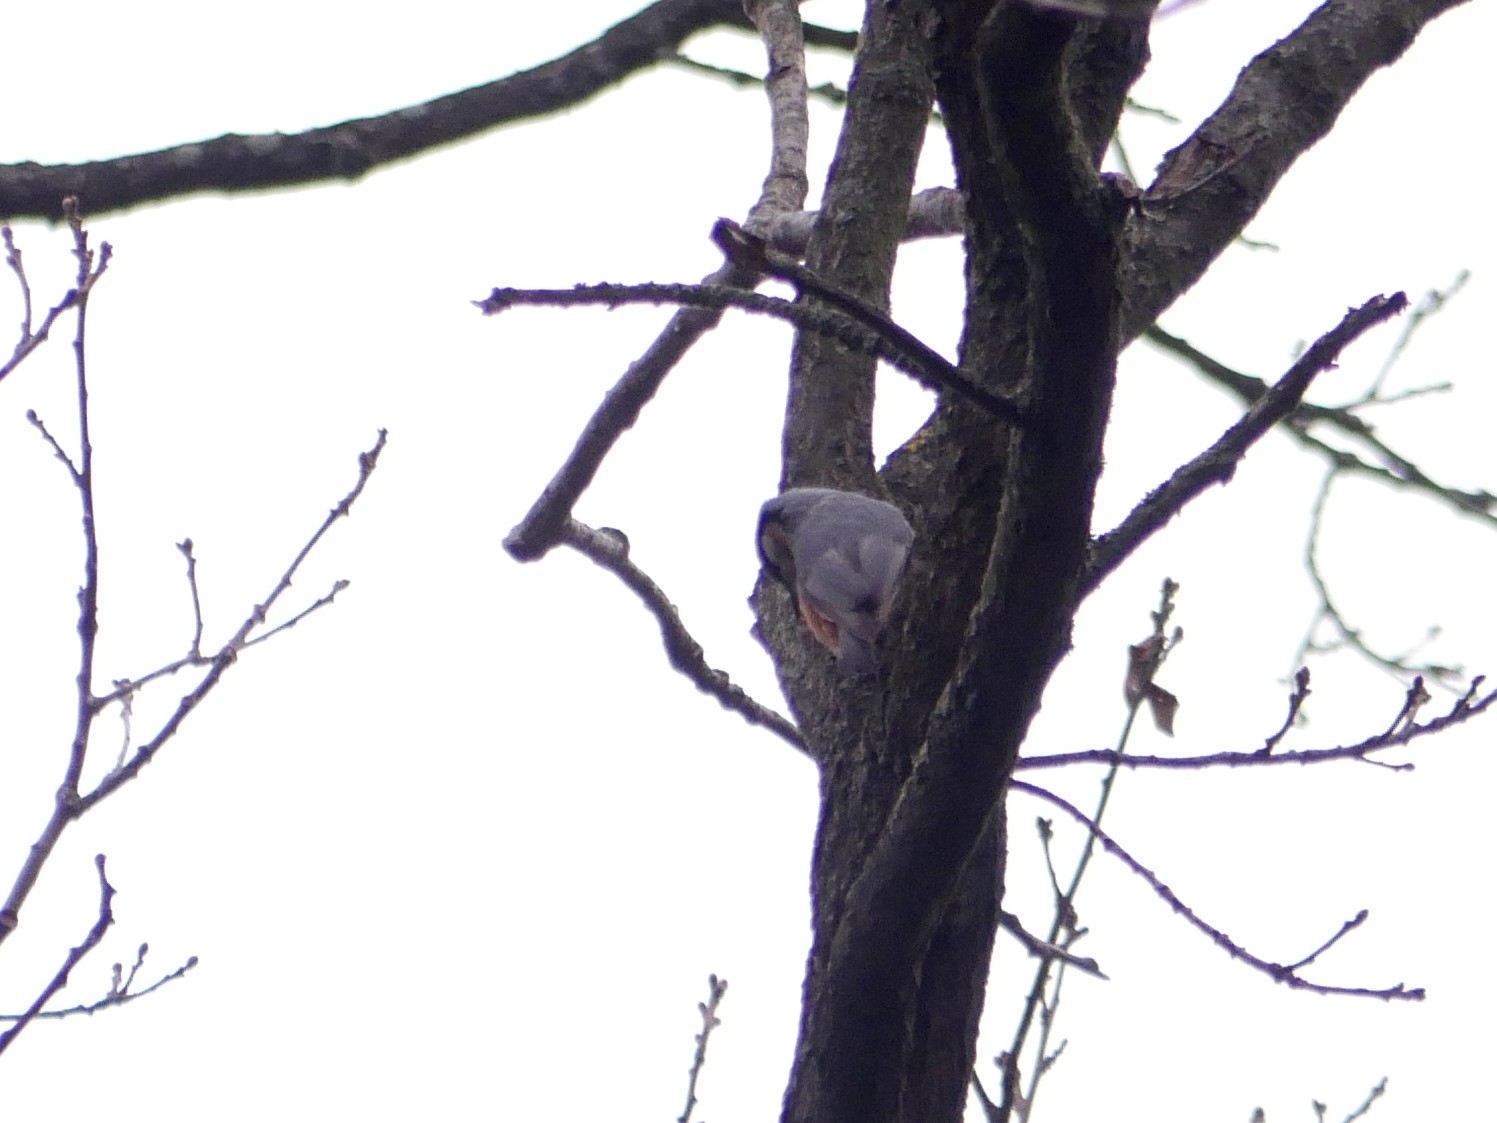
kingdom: Animalia
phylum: Chordata
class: Aves
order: Passeriformes
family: Sittidae
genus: Sitta
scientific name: Sitta europaea
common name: Eurasian nuthatch
